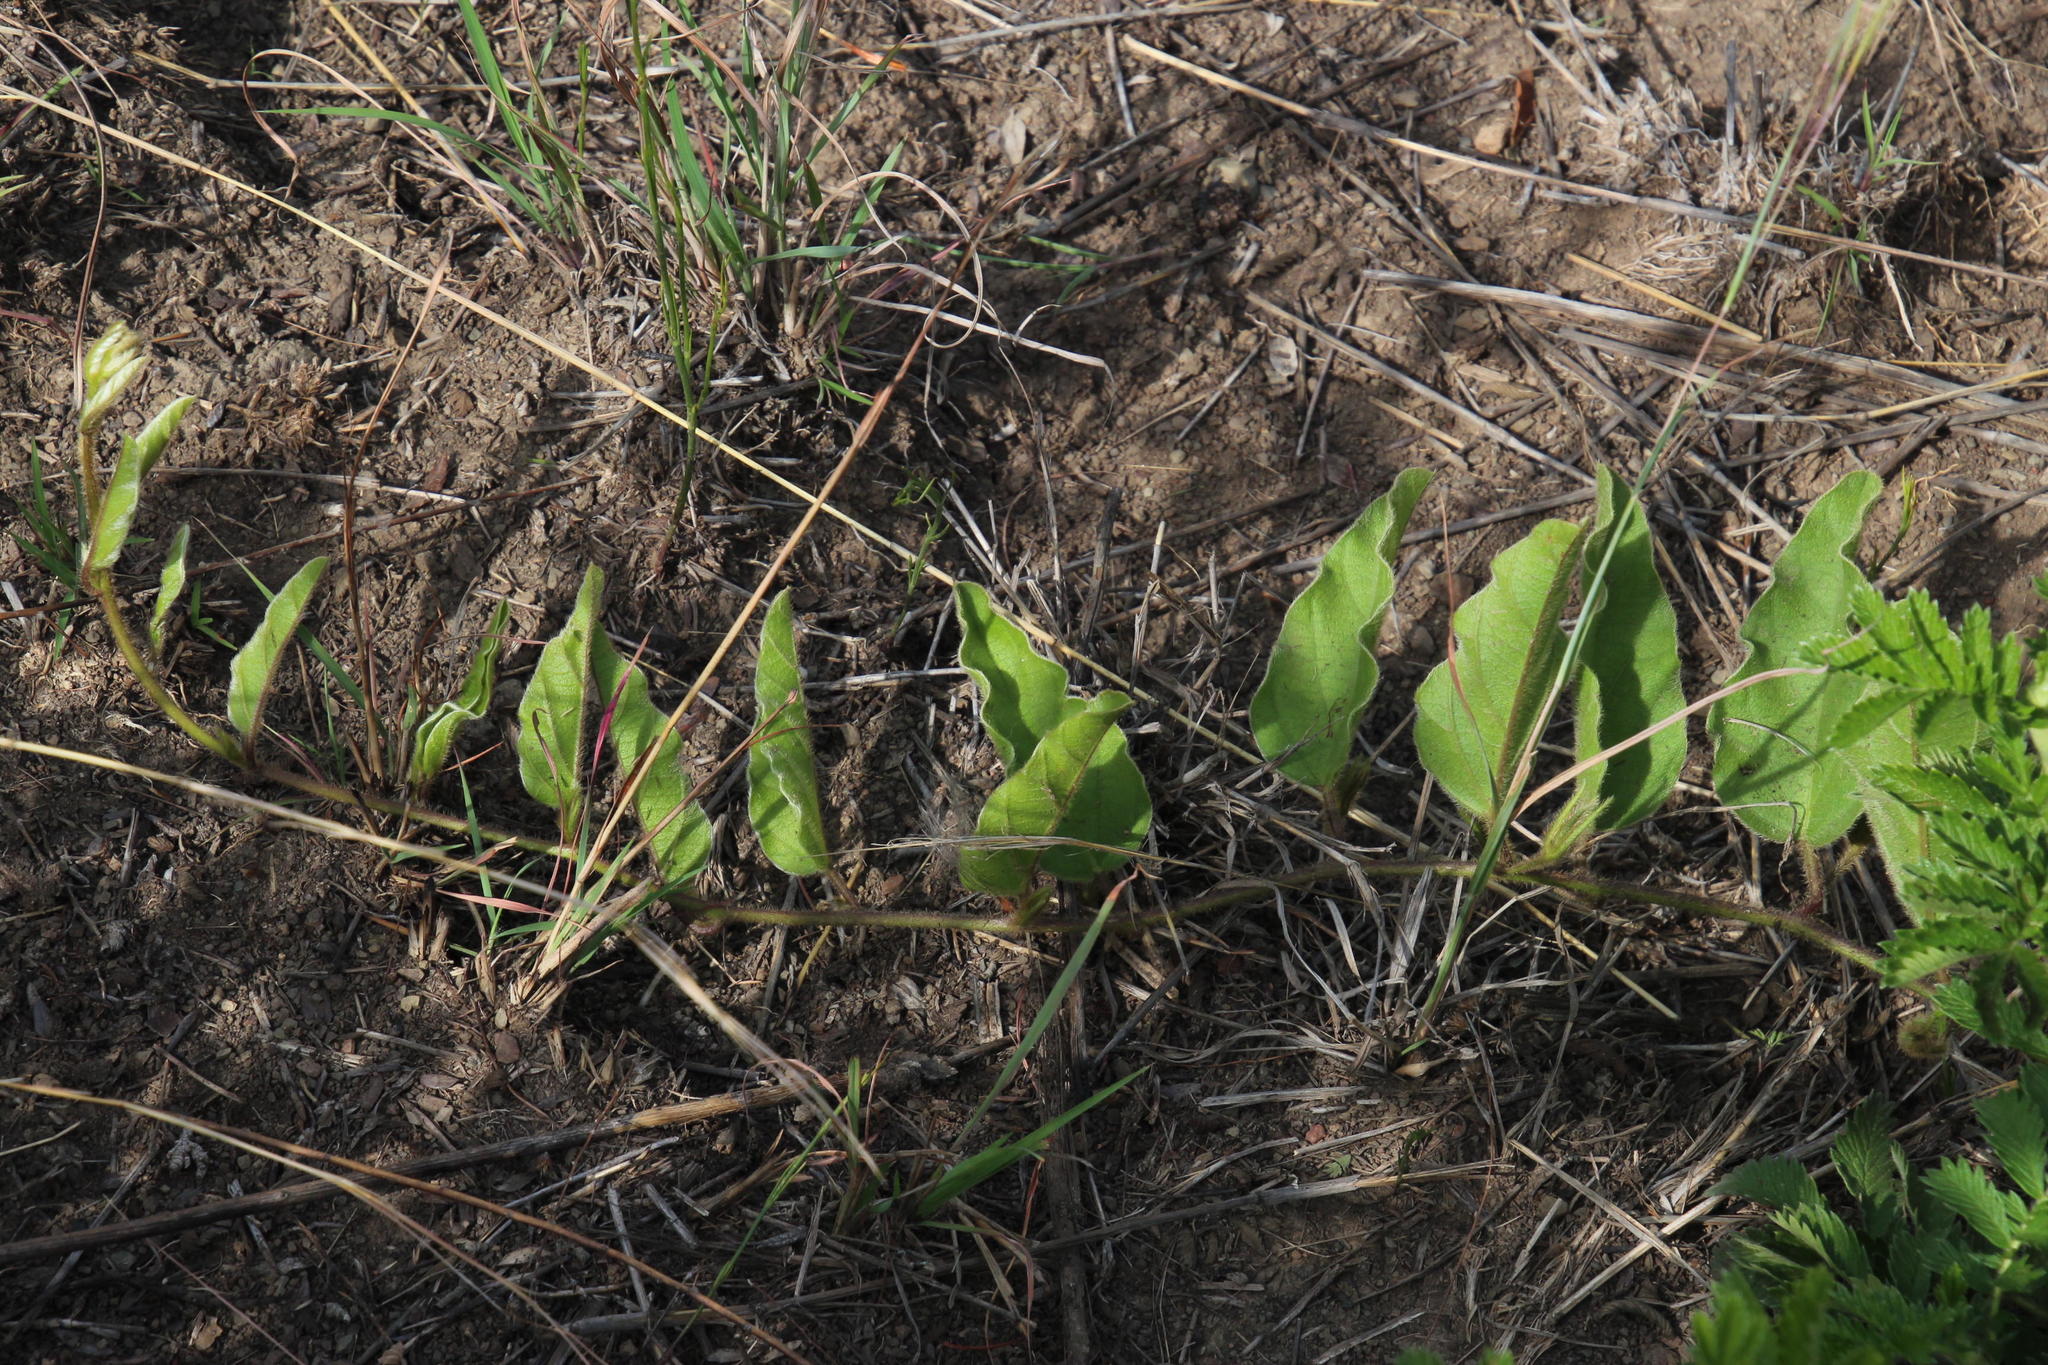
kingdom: Plantae
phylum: Tracheophyta
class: Magnoliopsida
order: Solanales
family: Convolvulaceae
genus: Ipomoea
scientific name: Ipomoea pellita
